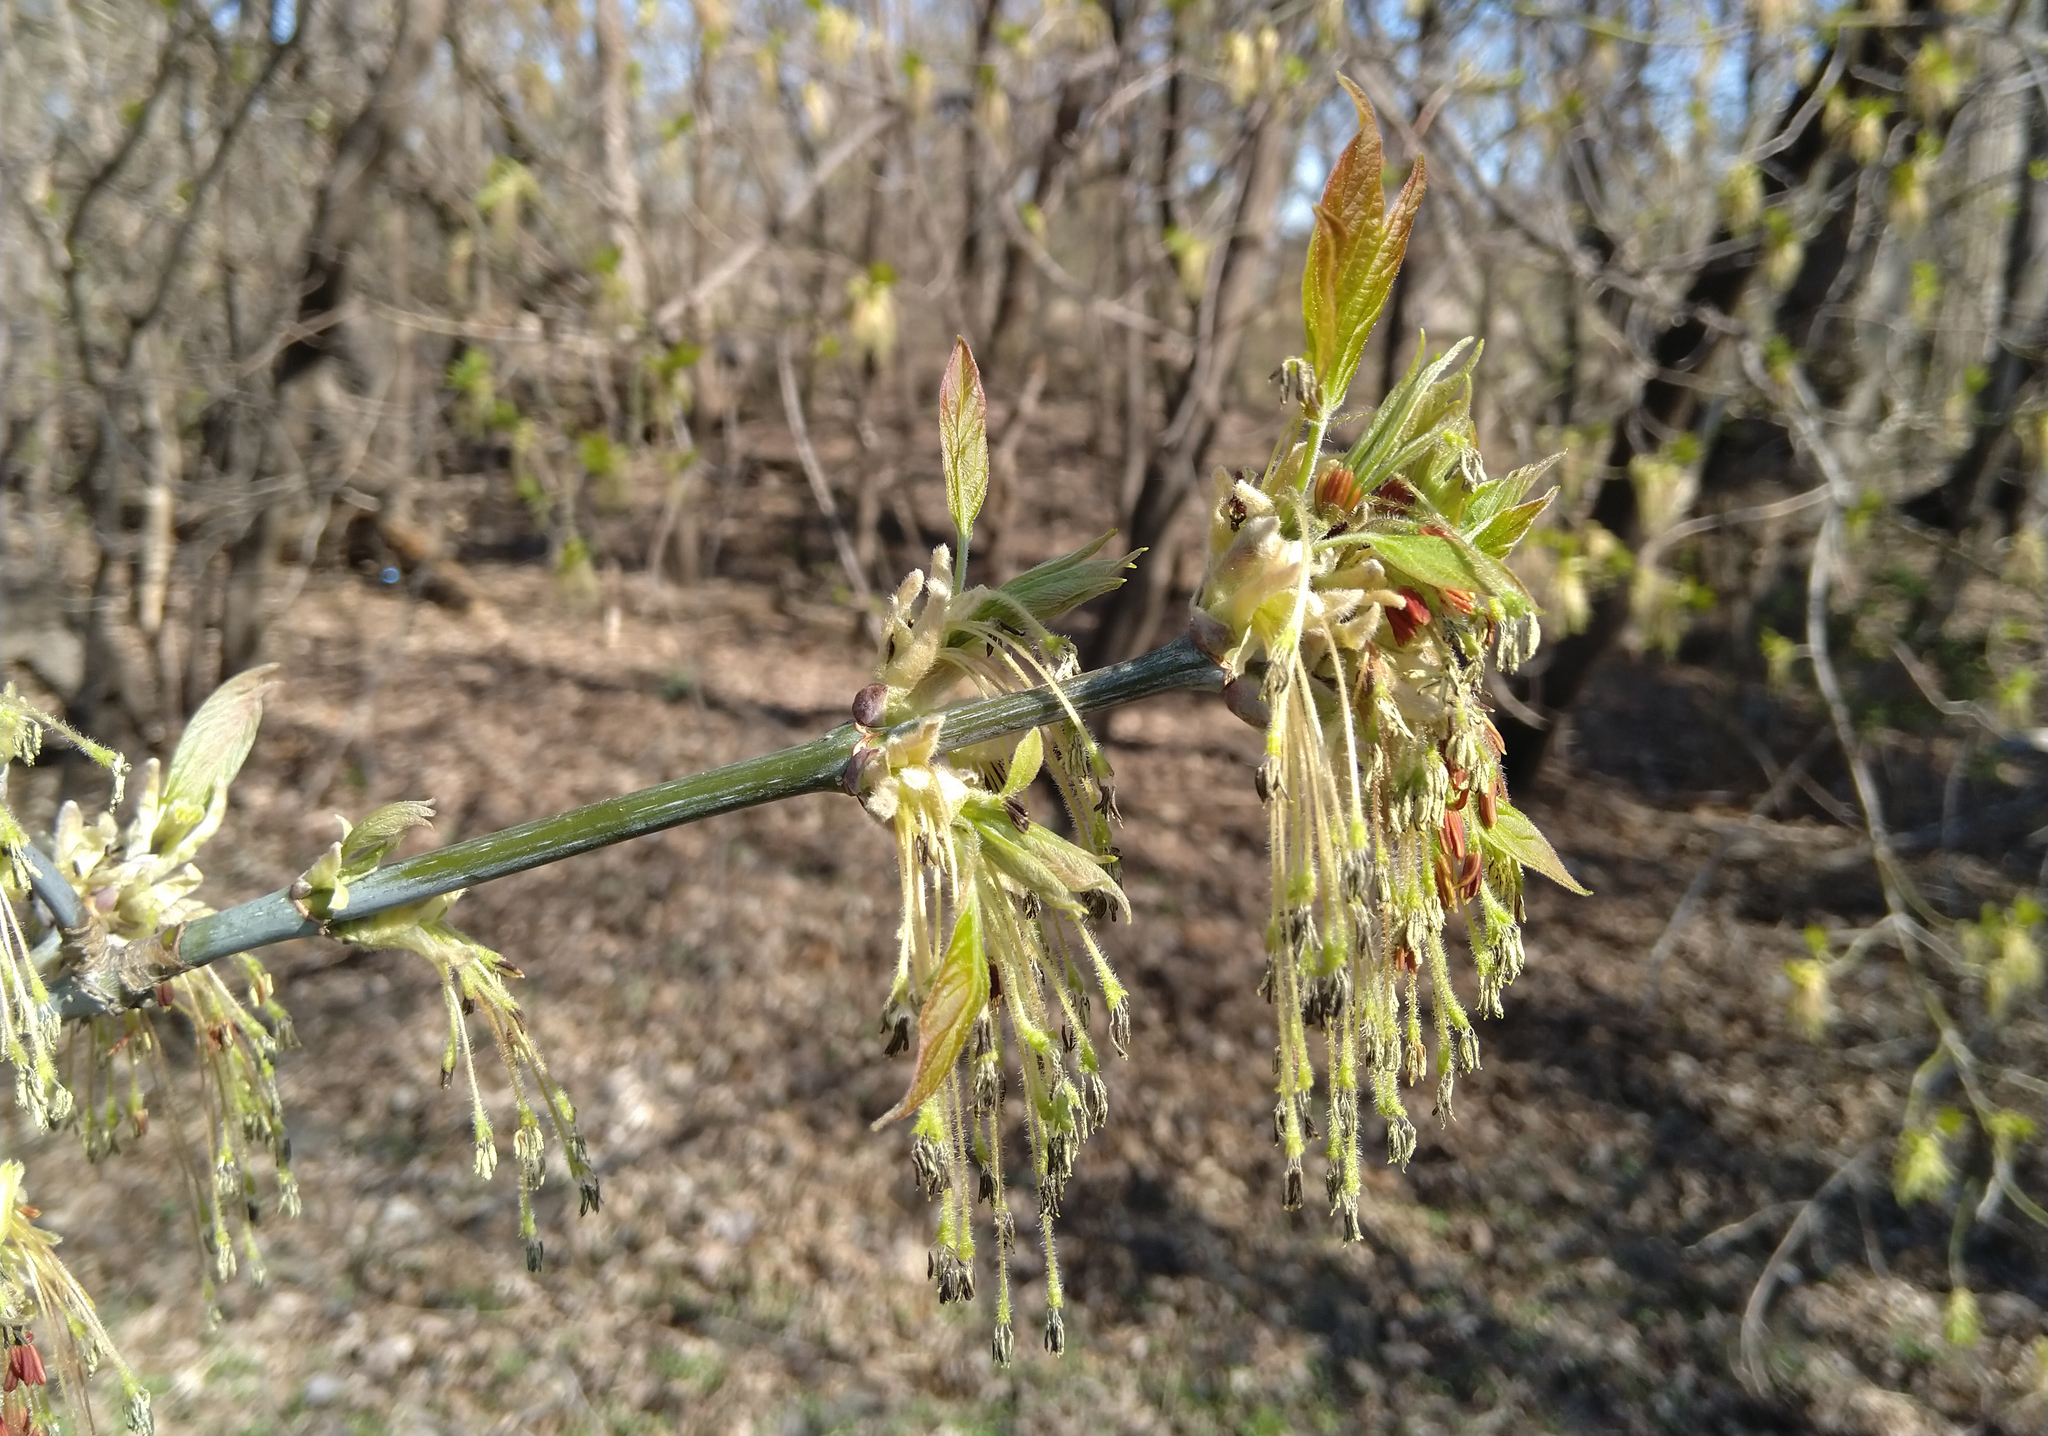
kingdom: Plantae
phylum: Tracheophyta
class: Magnoliopsida
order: Sapindales
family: Sapindaceae
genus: Acer
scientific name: Acer negundo
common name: Ashleaf maple
